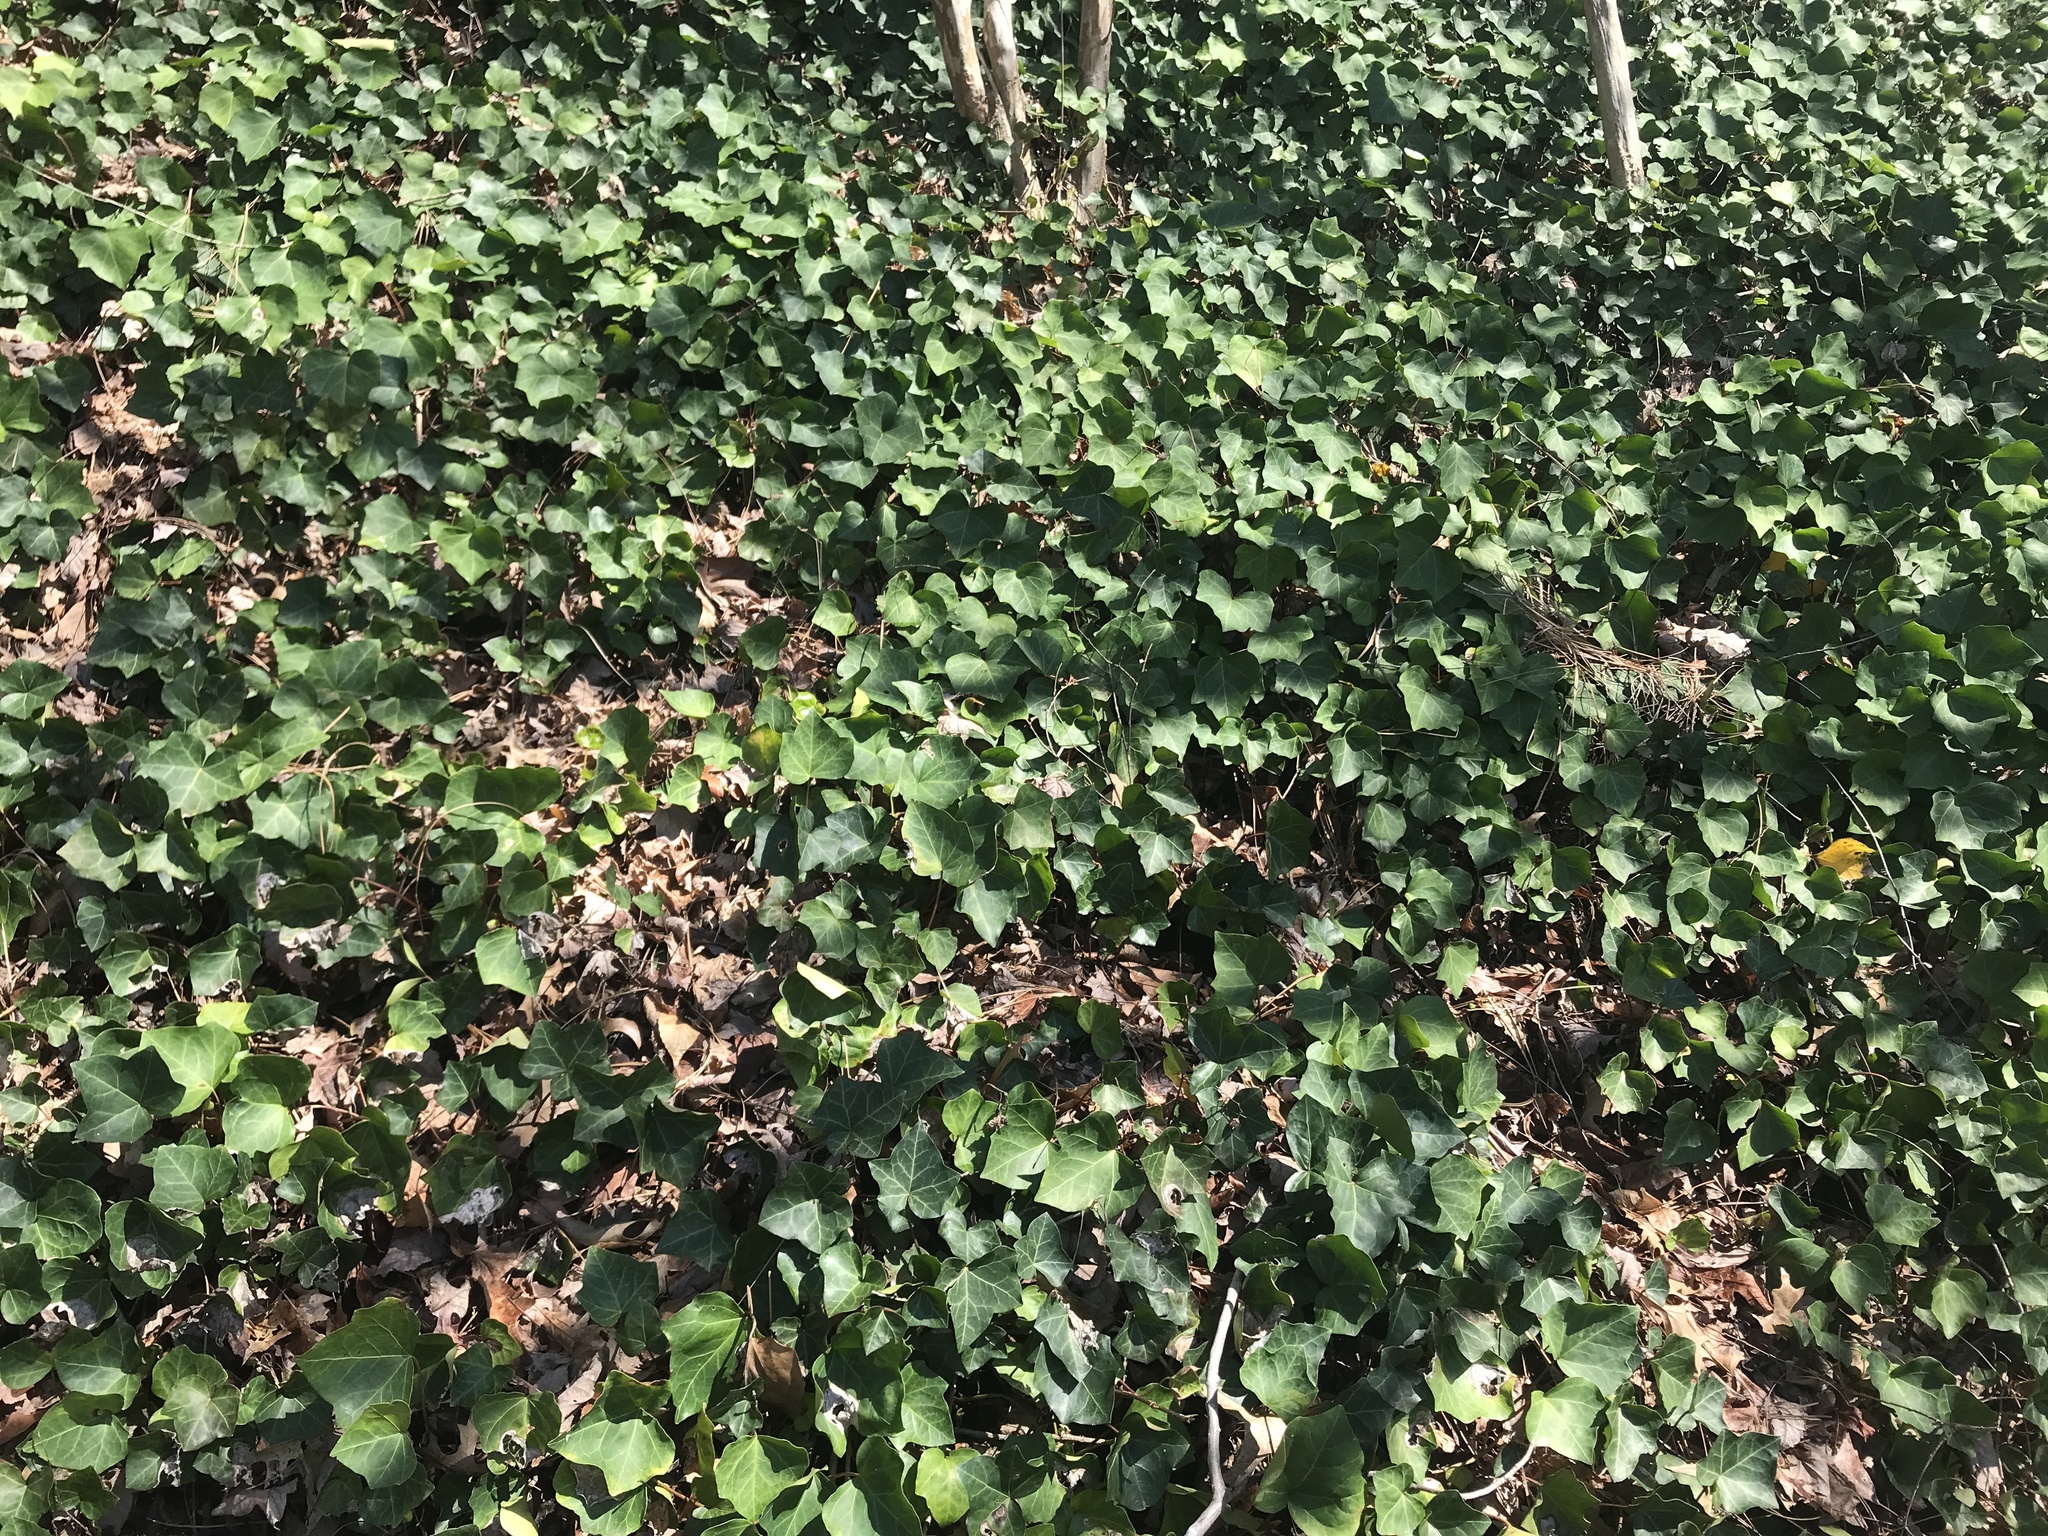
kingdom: Plantae
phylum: Tracheophyta
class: Magnoliopsida
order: Apiales
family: Araliaceae
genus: Hedera
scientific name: Hedera helix
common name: Ivy
